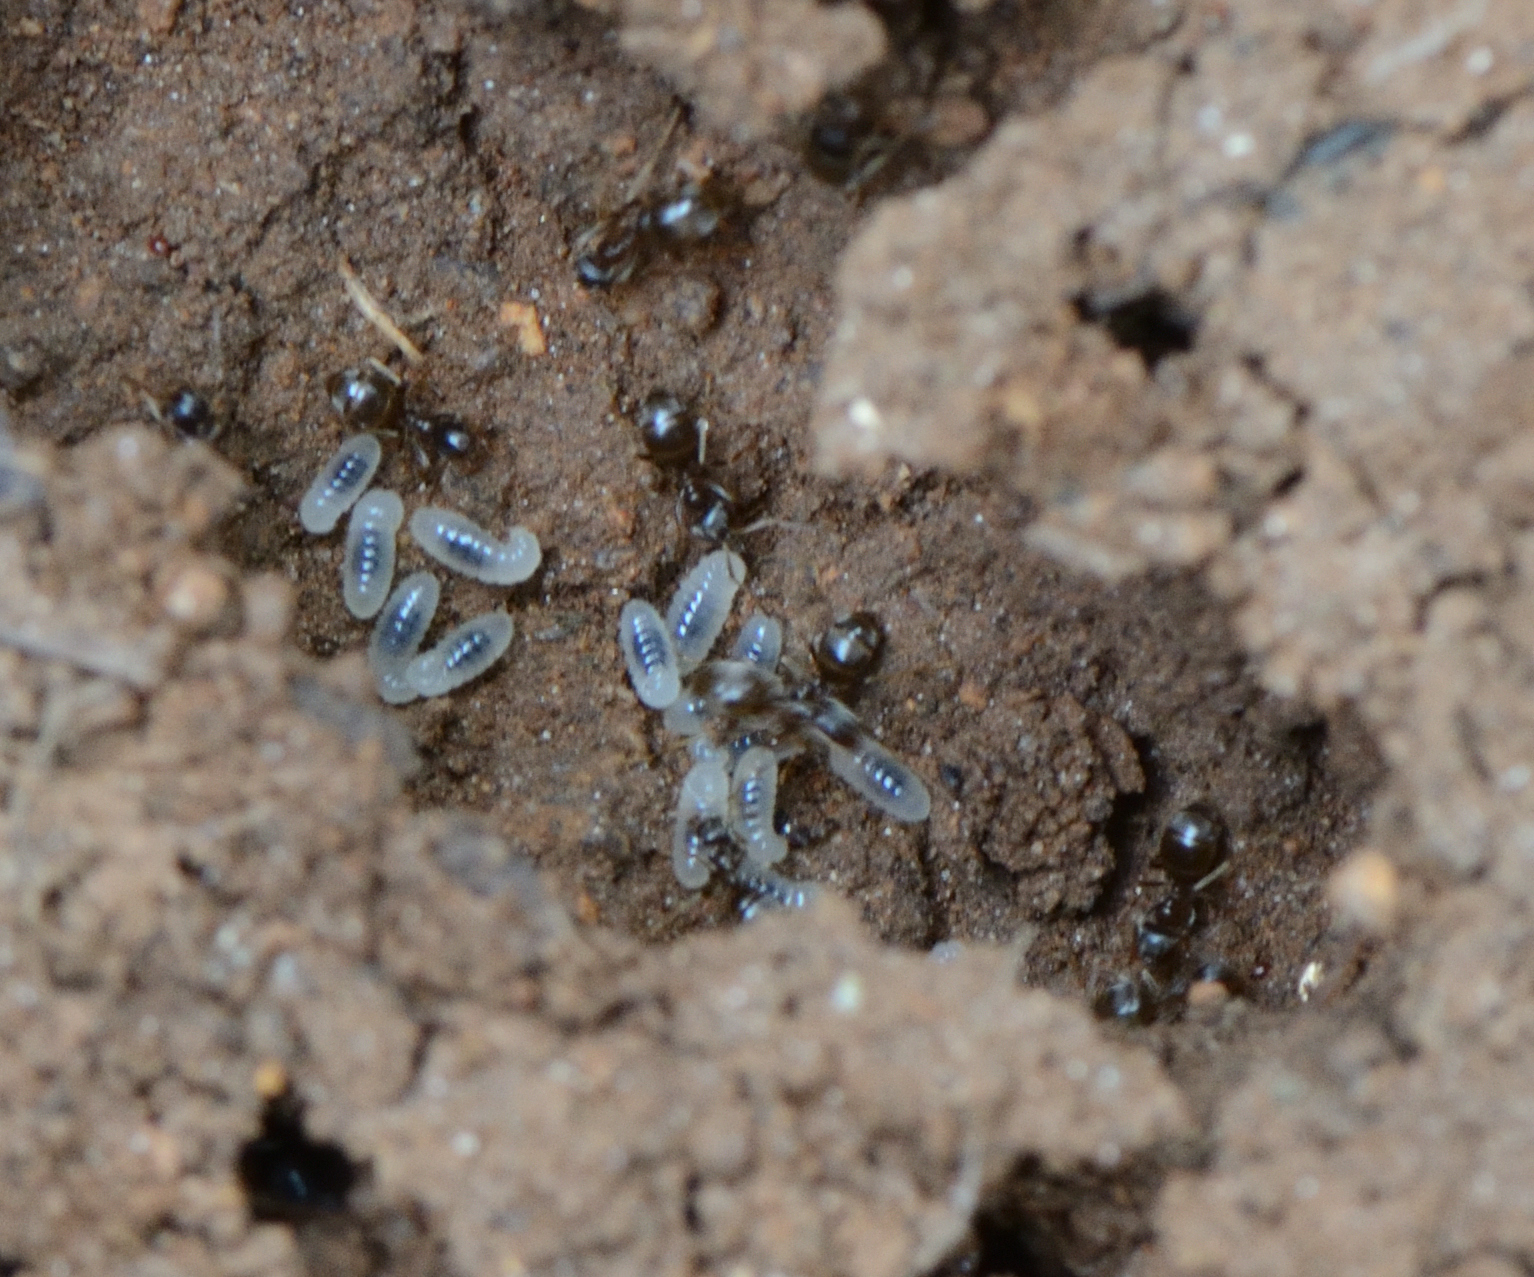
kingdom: Animalia
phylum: Arthropoda
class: Insecta
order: Hymenoptera
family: Formicidae
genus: Lasius
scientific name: Lasius americanus
